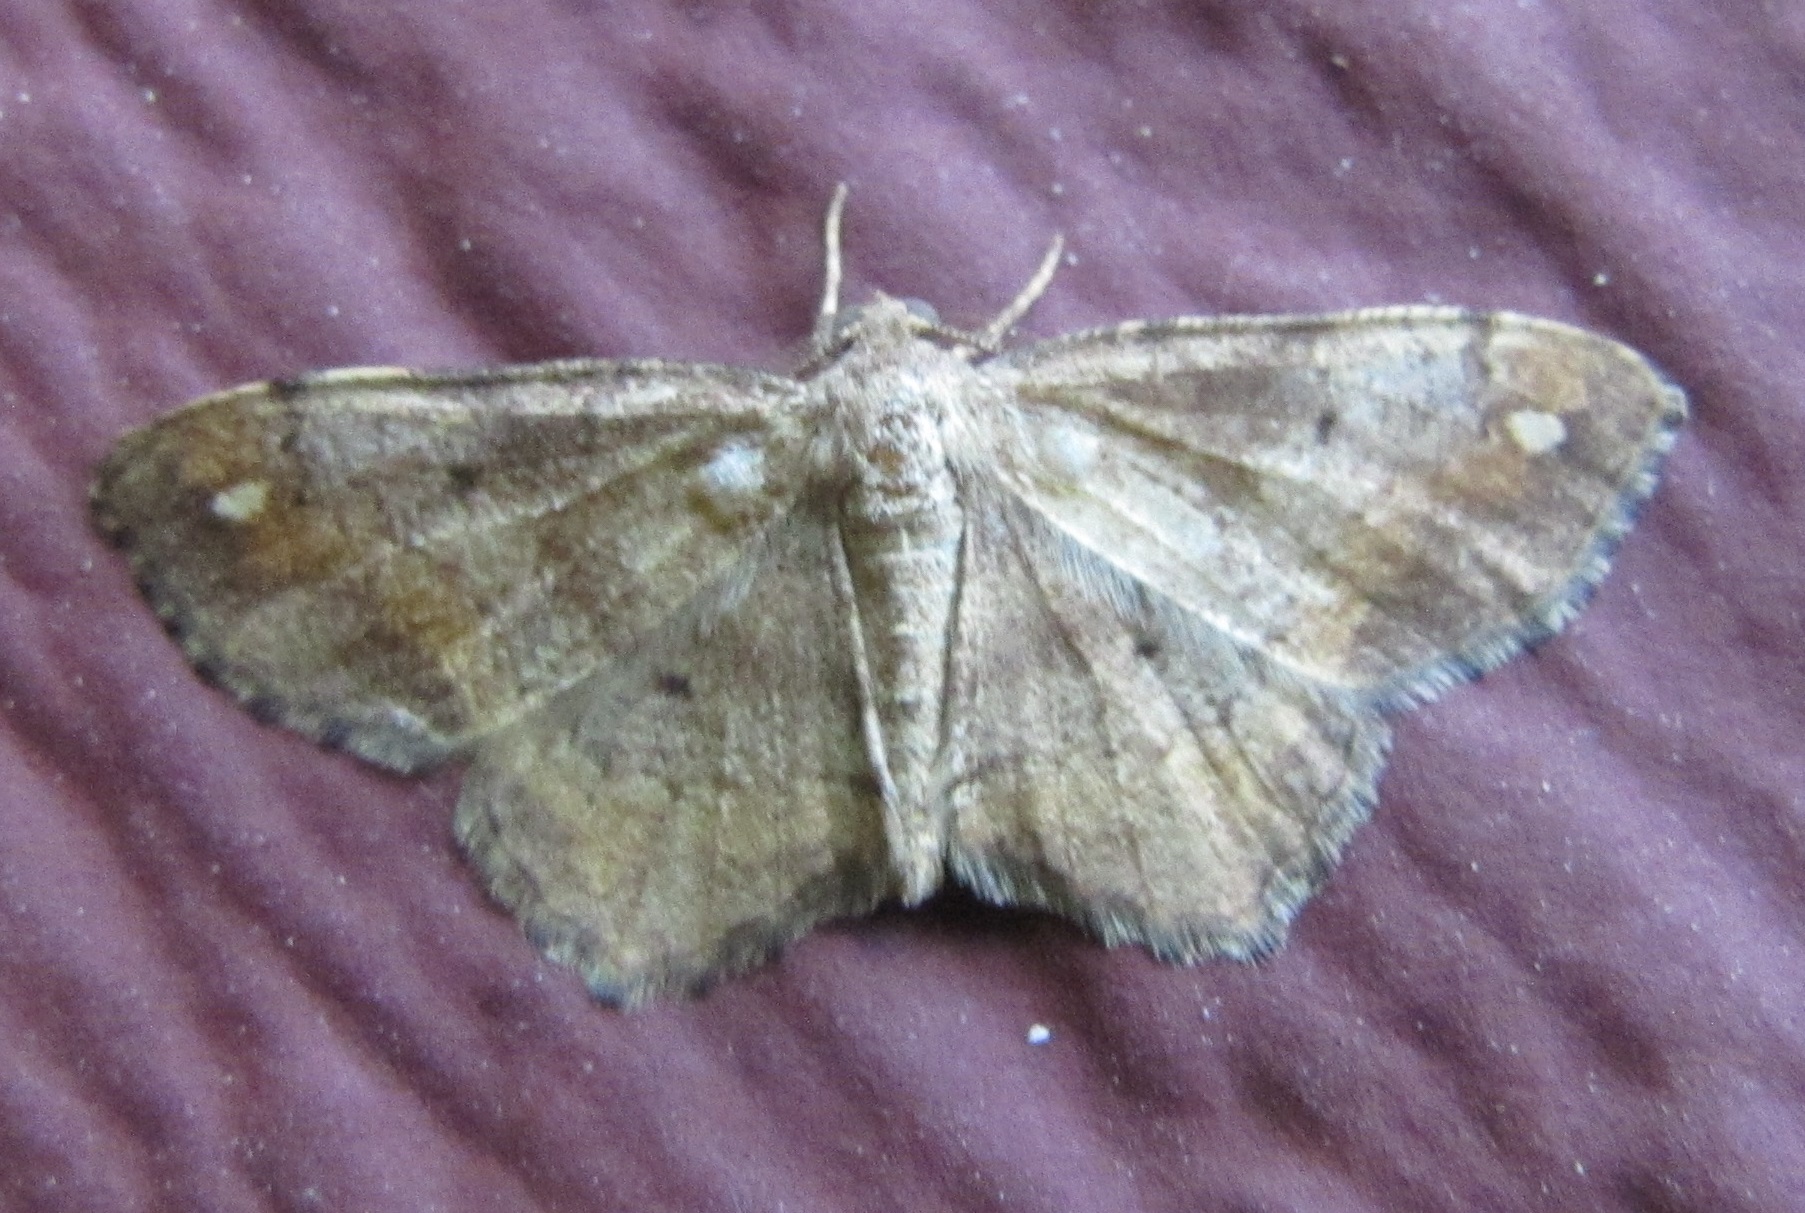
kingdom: Animalia
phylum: Arthropoda
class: Insecta
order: Lepidoptera
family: Geometridae
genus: Hypagyrtis
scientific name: Hypagyrtis unipunctata
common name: One-spotted variant
